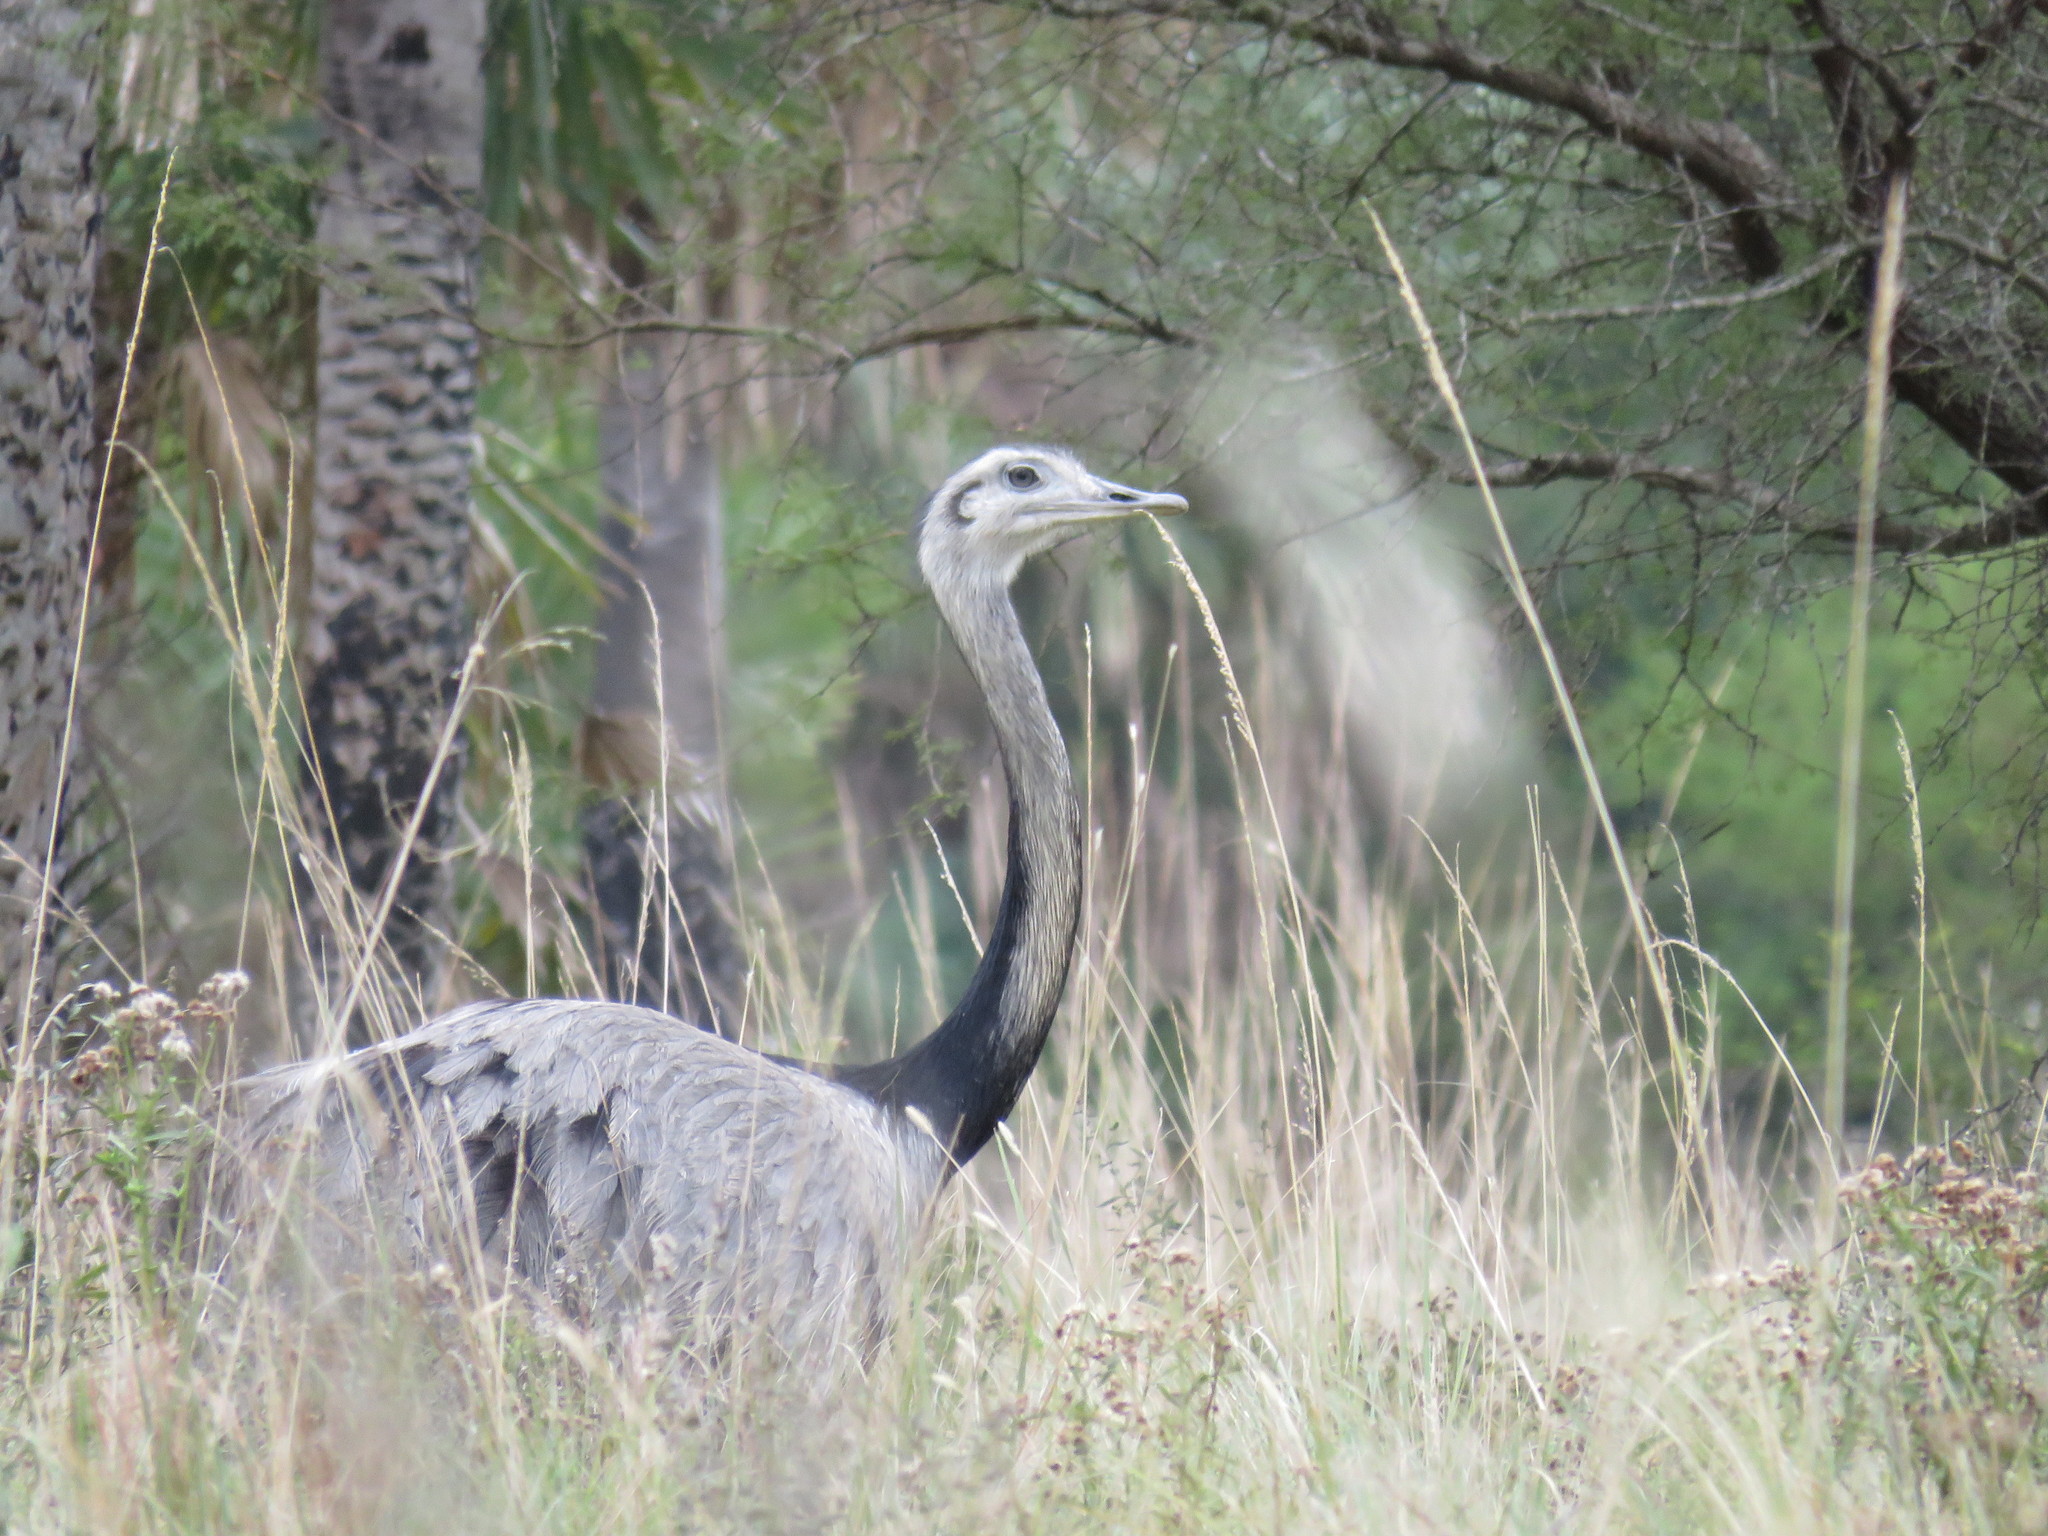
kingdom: Animalia
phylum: Chordata
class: Aves
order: Rheiformes
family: Rheidae
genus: Rhea
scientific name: Rhea americana
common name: Greater rhea
